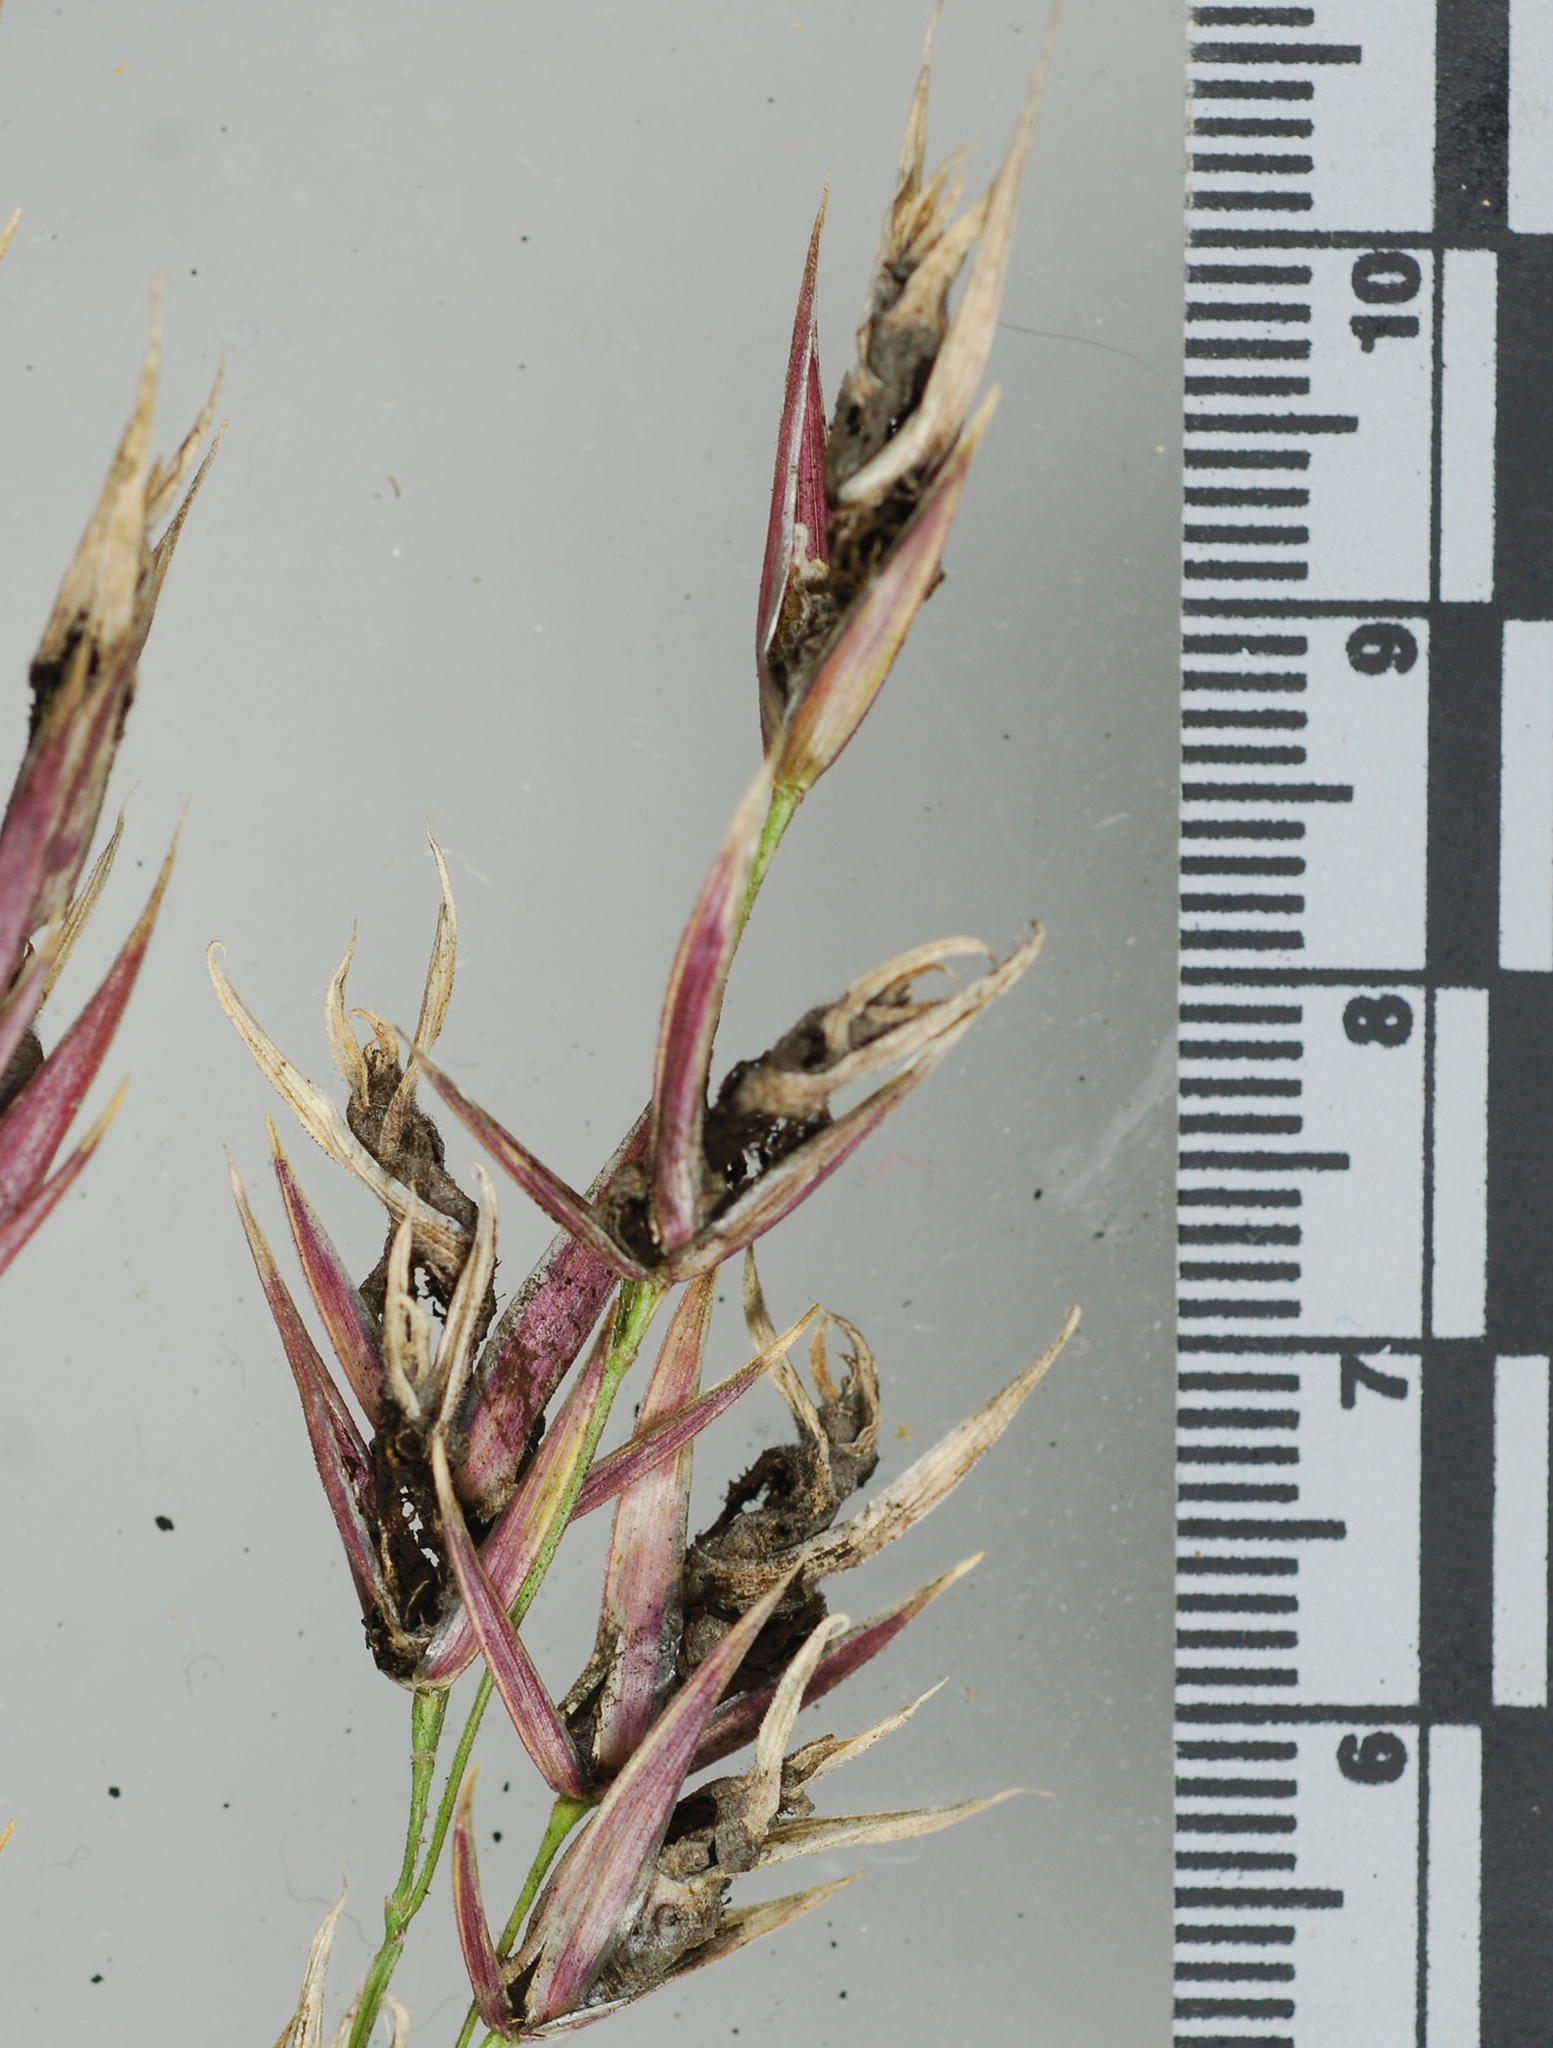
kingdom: Fungi
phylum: Basidiomycota
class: Ustilaginomycetes
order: Ustilaginales
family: Ustilaginaceae
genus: Ustilago
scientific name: Ustilago bullata
